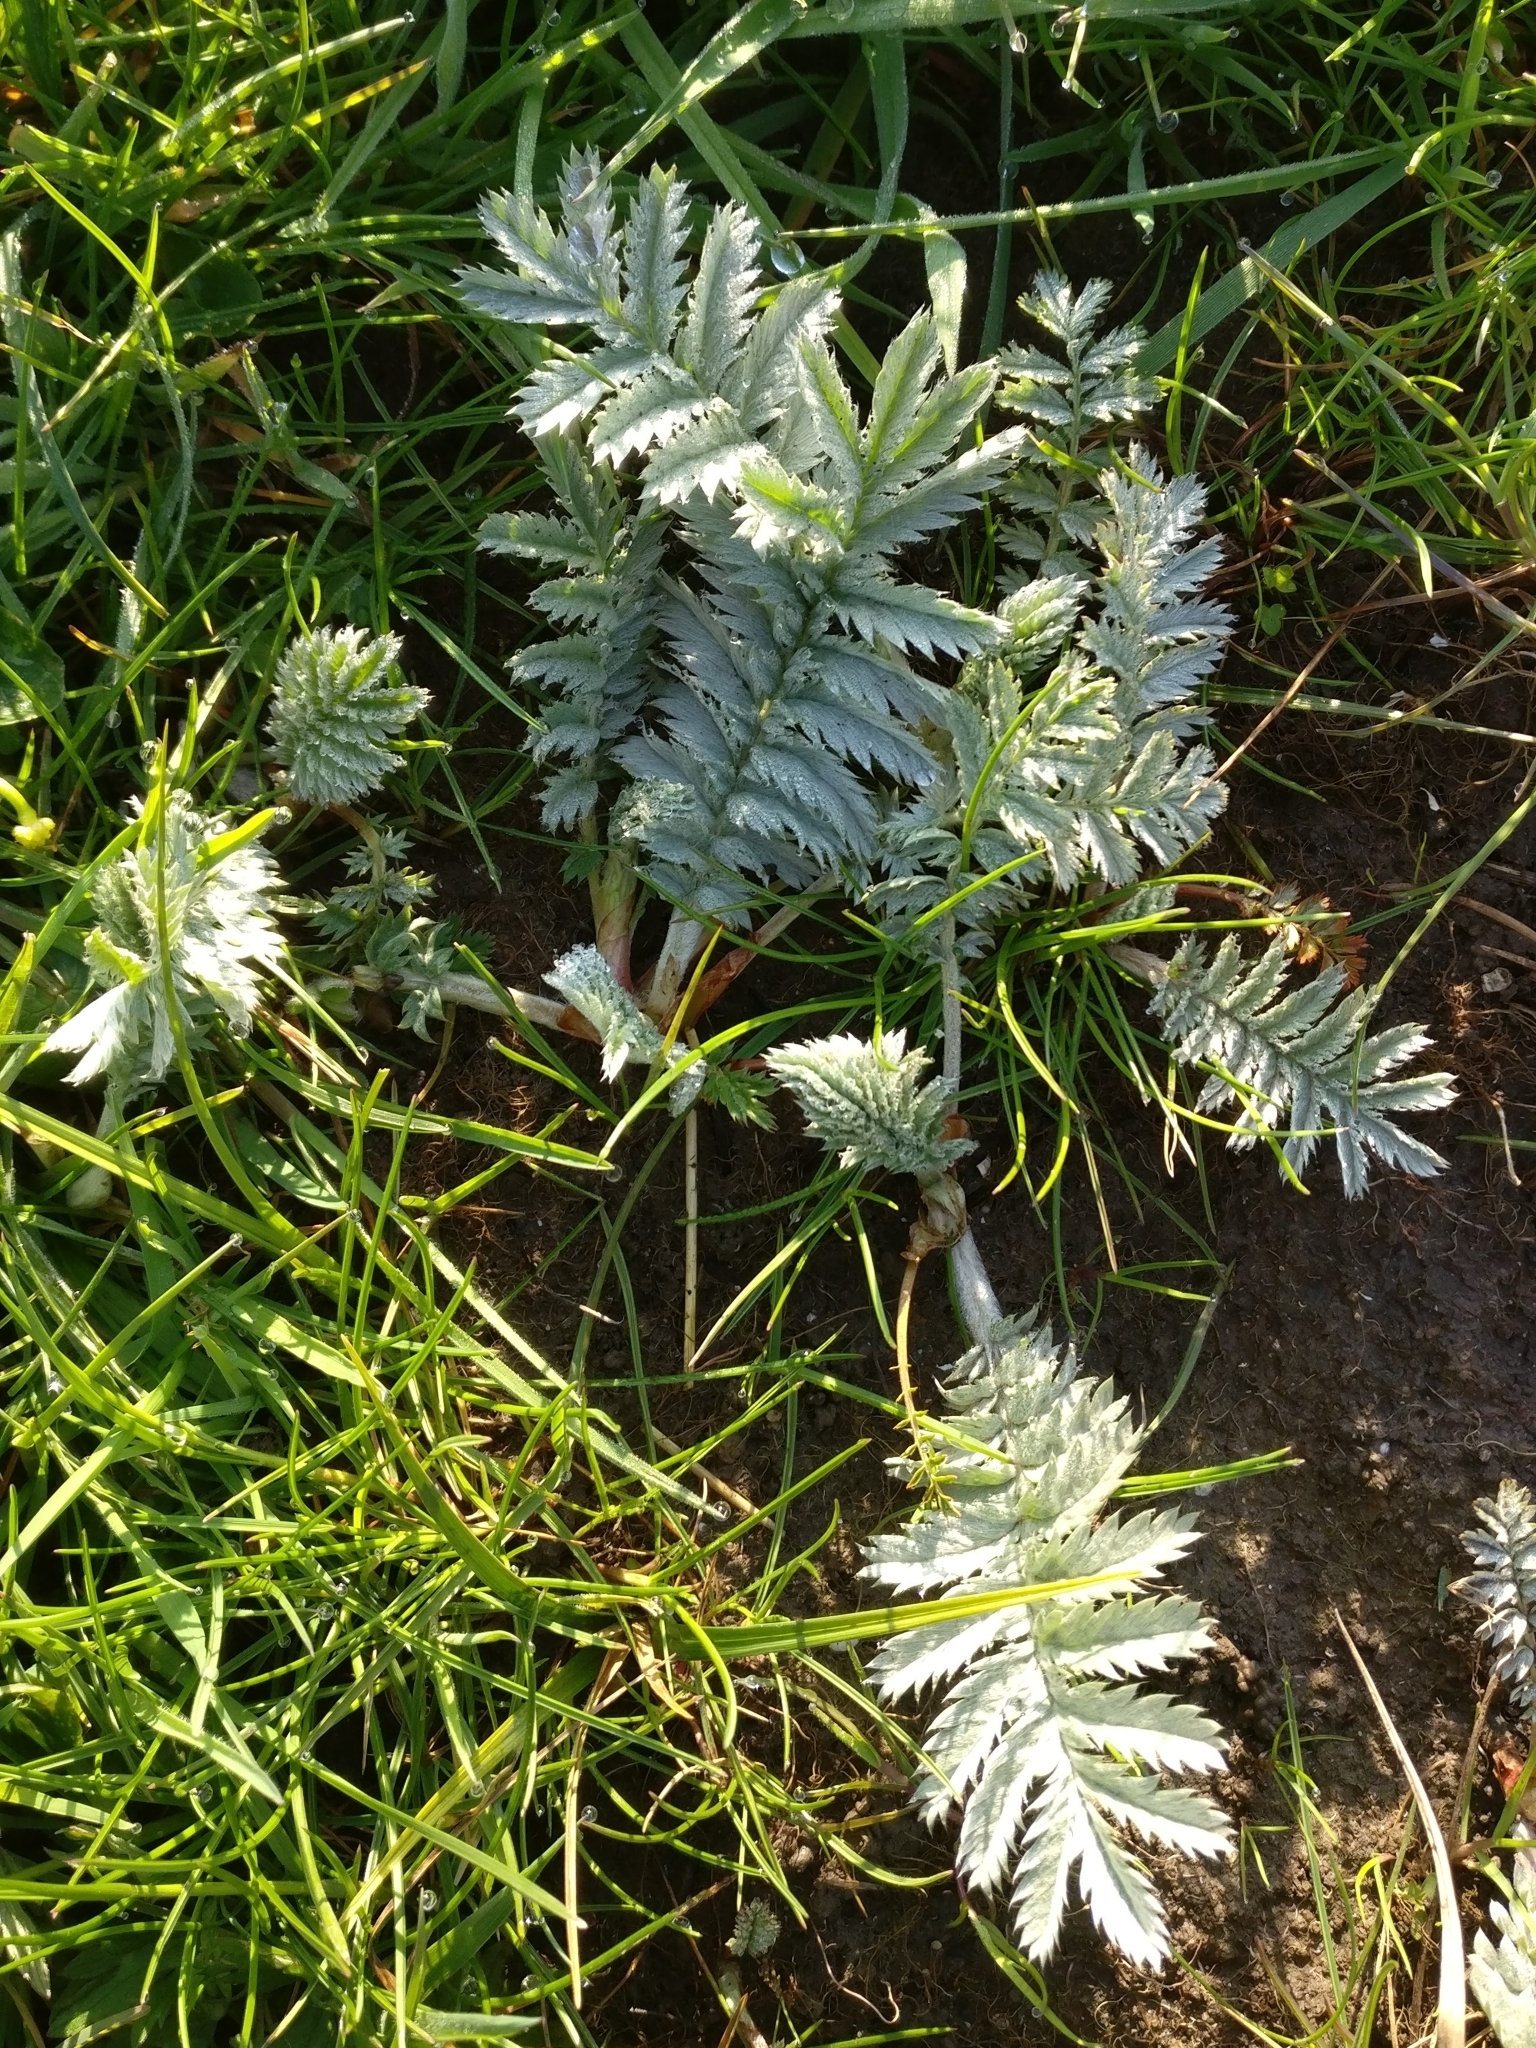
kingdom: Plantae
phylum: Tracheophyta
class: Magnoliopsida
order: Rosales
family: Rosaceae
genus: Argentina
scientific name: Argentina anserina
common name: Common silverweed
